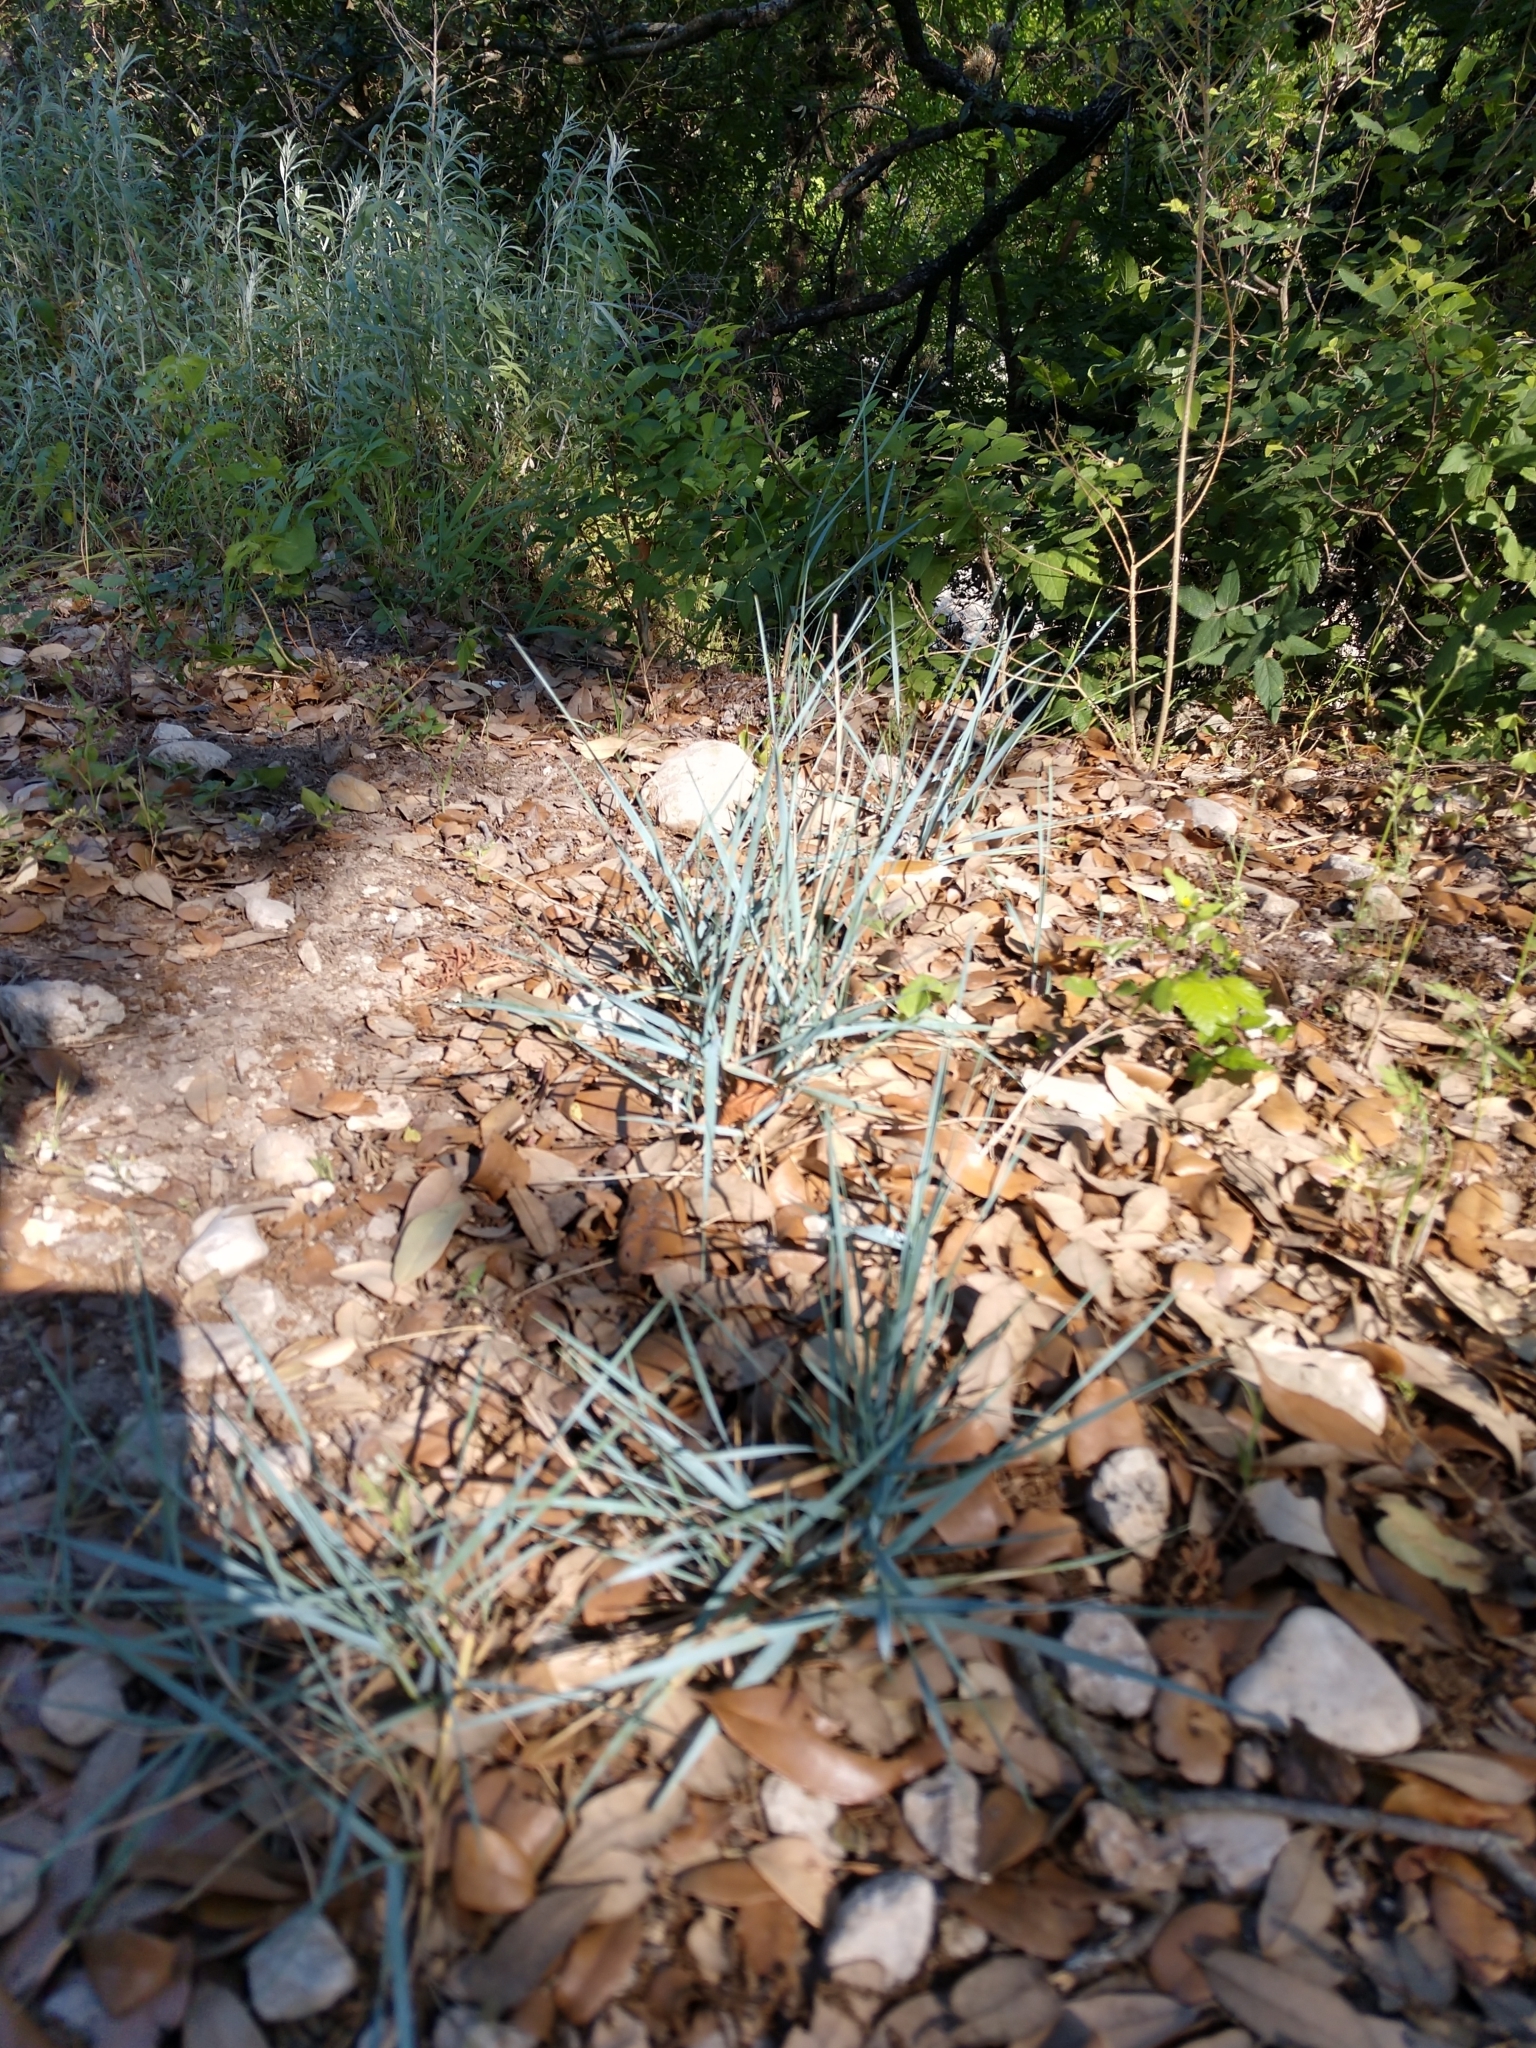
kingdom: Plantae
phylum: Tracheophyta
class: Liliopsida
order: Poales
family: Poaceae
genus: Elymus
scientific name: Elymus smithii
